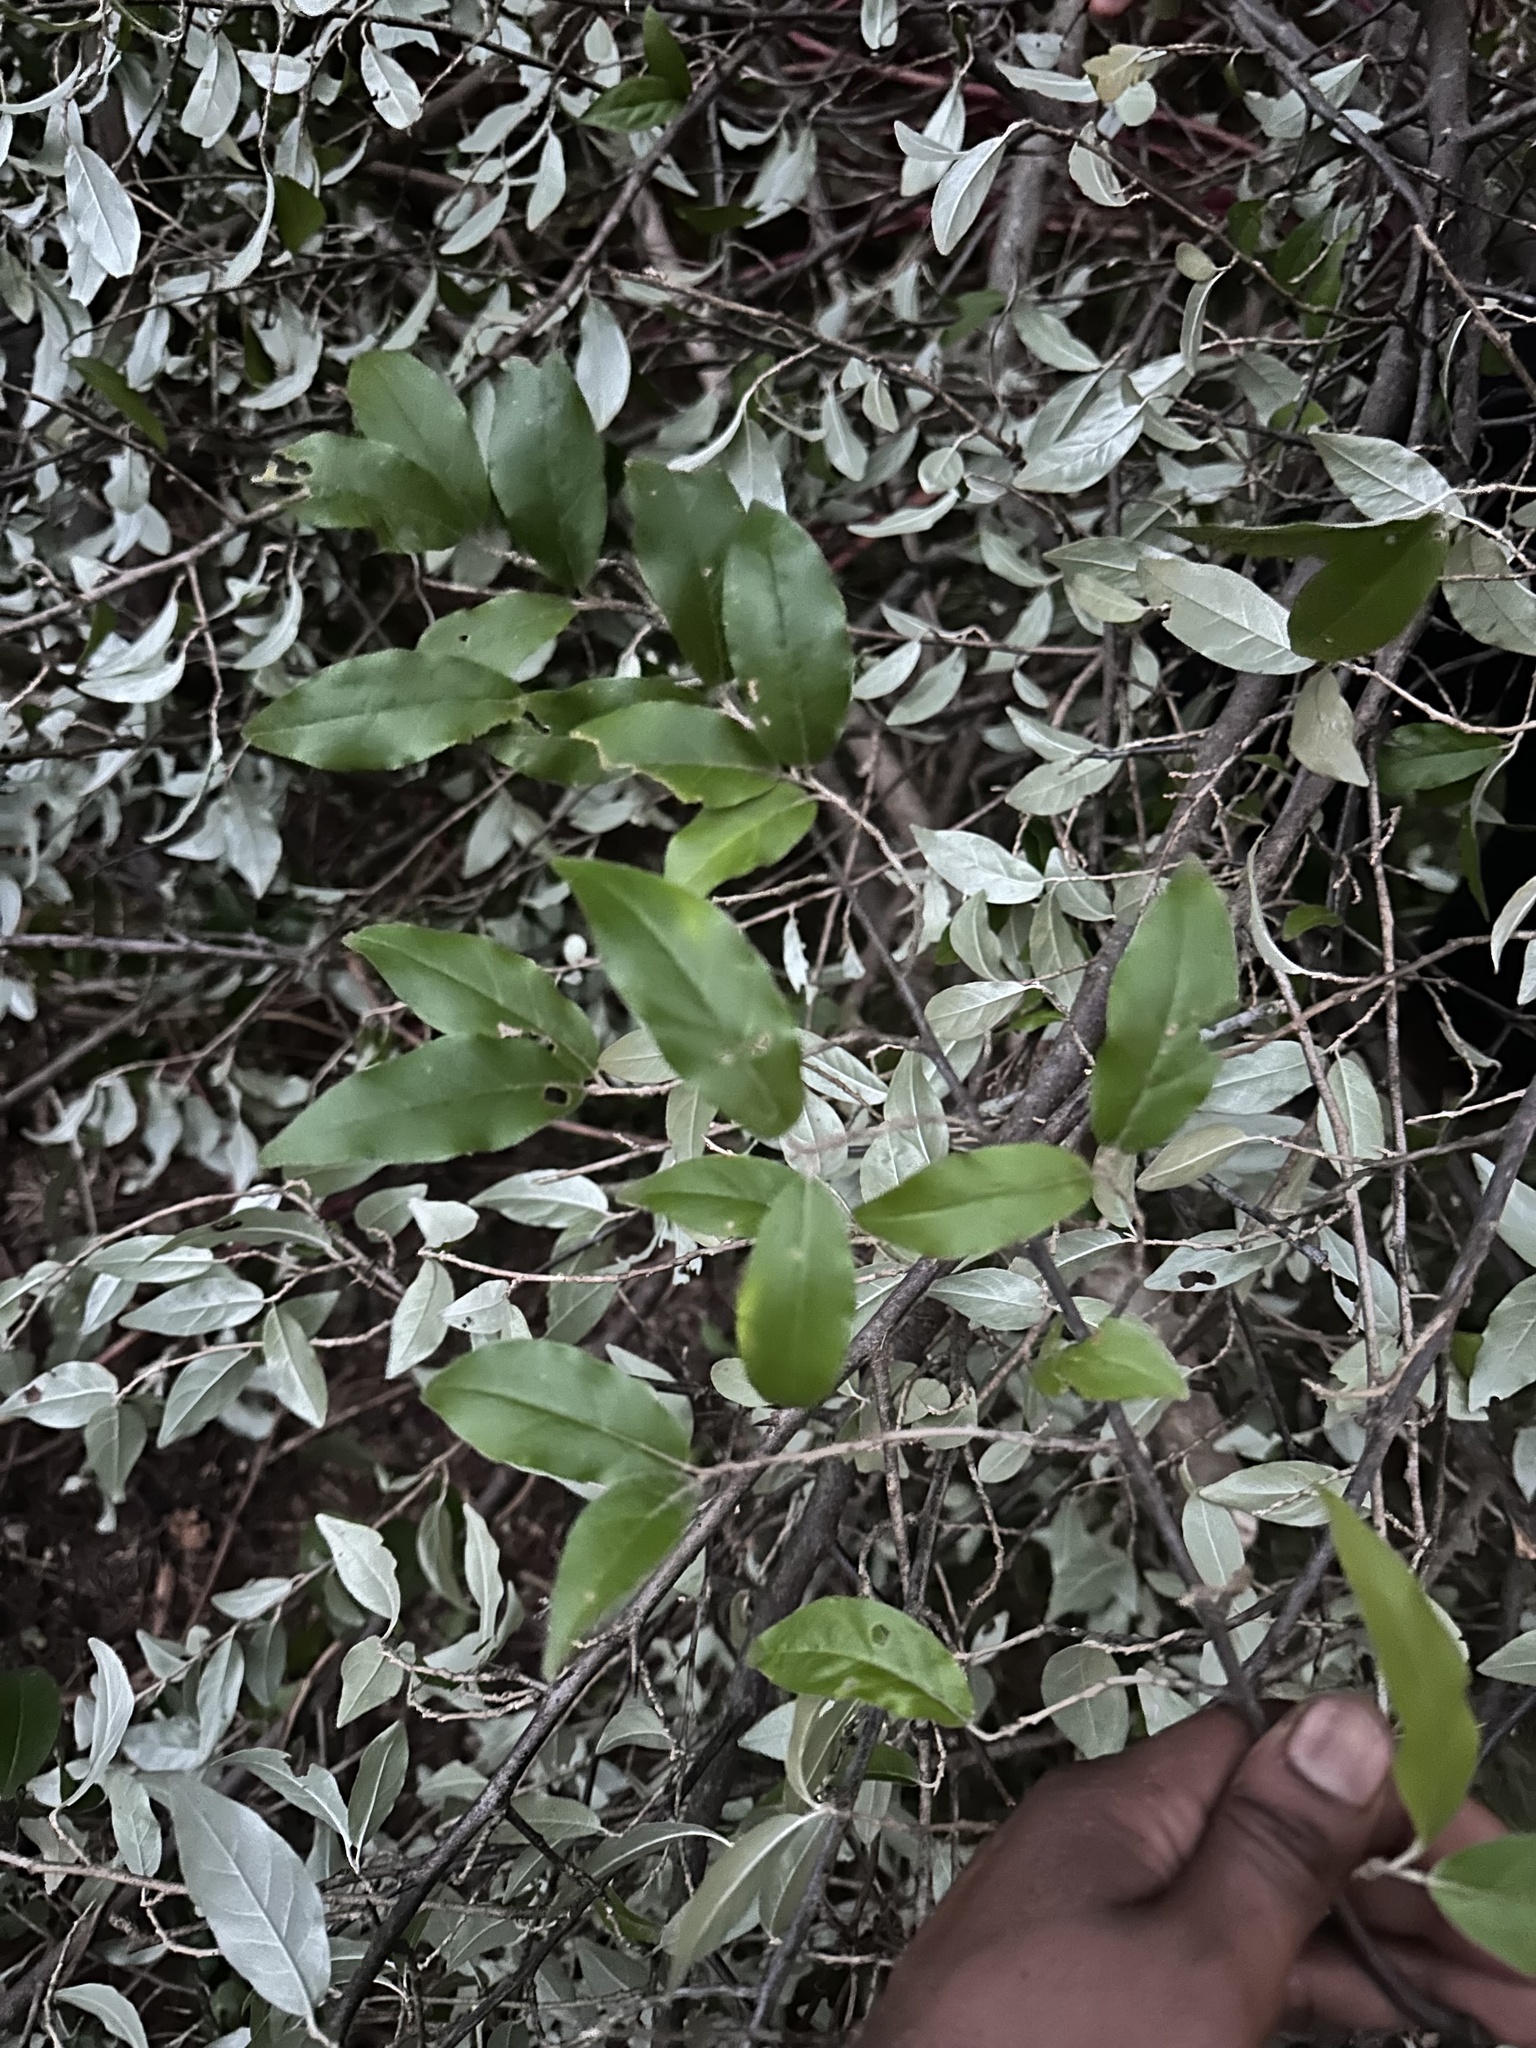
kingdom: Plantae
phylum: Tracheophyta
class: Magnoliopsida
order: Rosales
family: Elaeagnaceae
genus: Elaeagnus
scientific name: Elaeagnus umbellata
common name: Autumn olive
